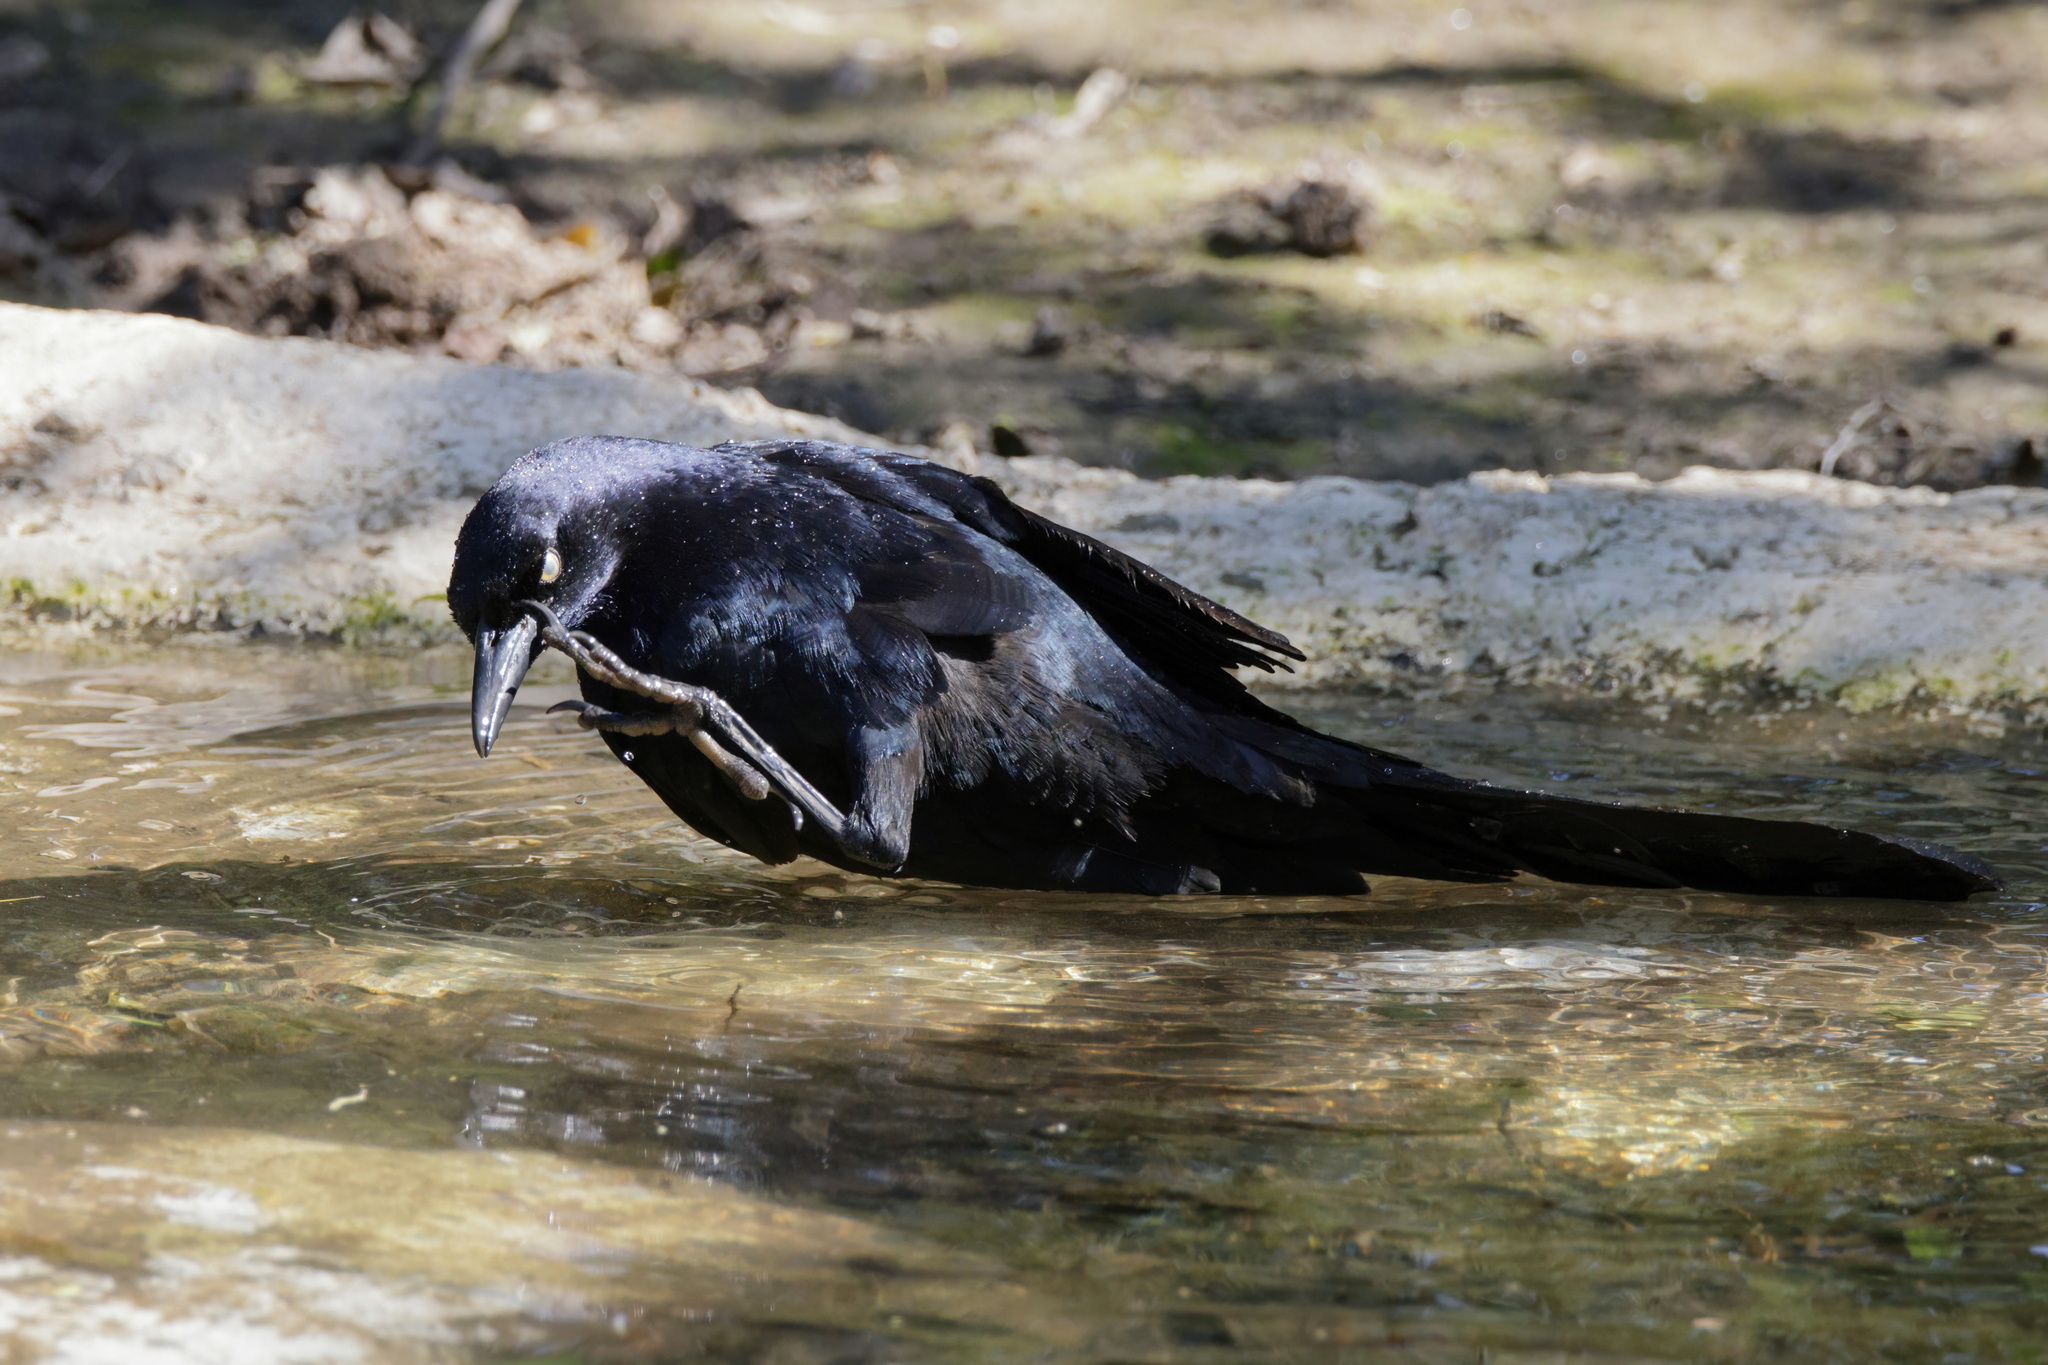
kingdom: Animalia
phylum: Chordata
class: Aves
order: Passeriformes
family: Icteridae
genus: Quiscalus
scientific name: Quiscalus mexicanus
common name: Great-tailed grackle
